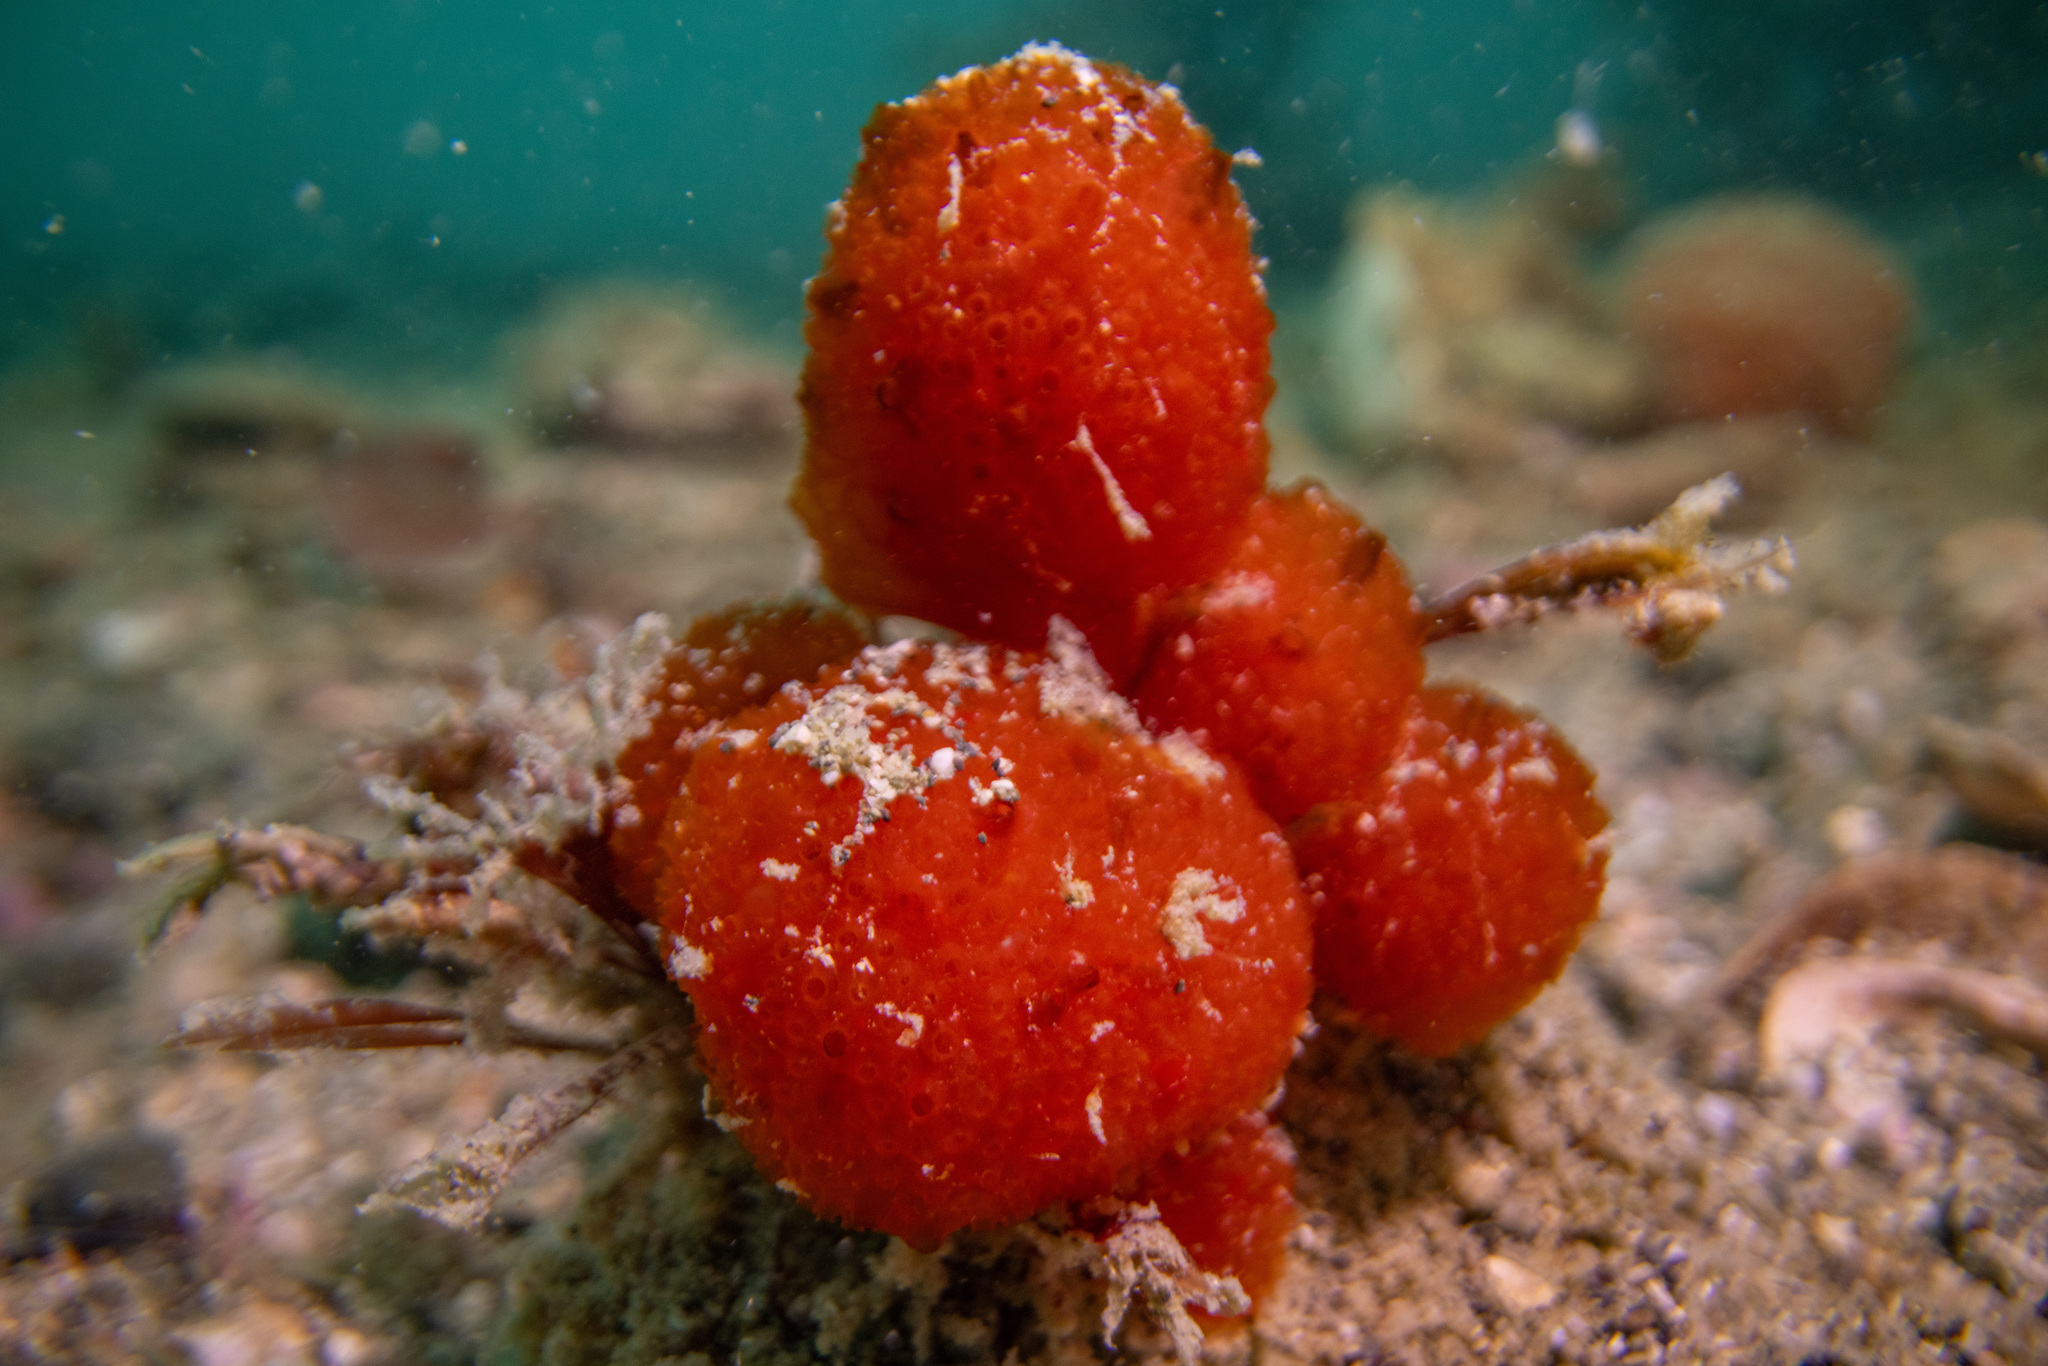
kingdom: Animalia
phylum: Chordata
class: Ascidiacea
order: Aplousobranchia
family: Polyclinidae
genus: Synoicum
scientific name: Synoicum kuranui
